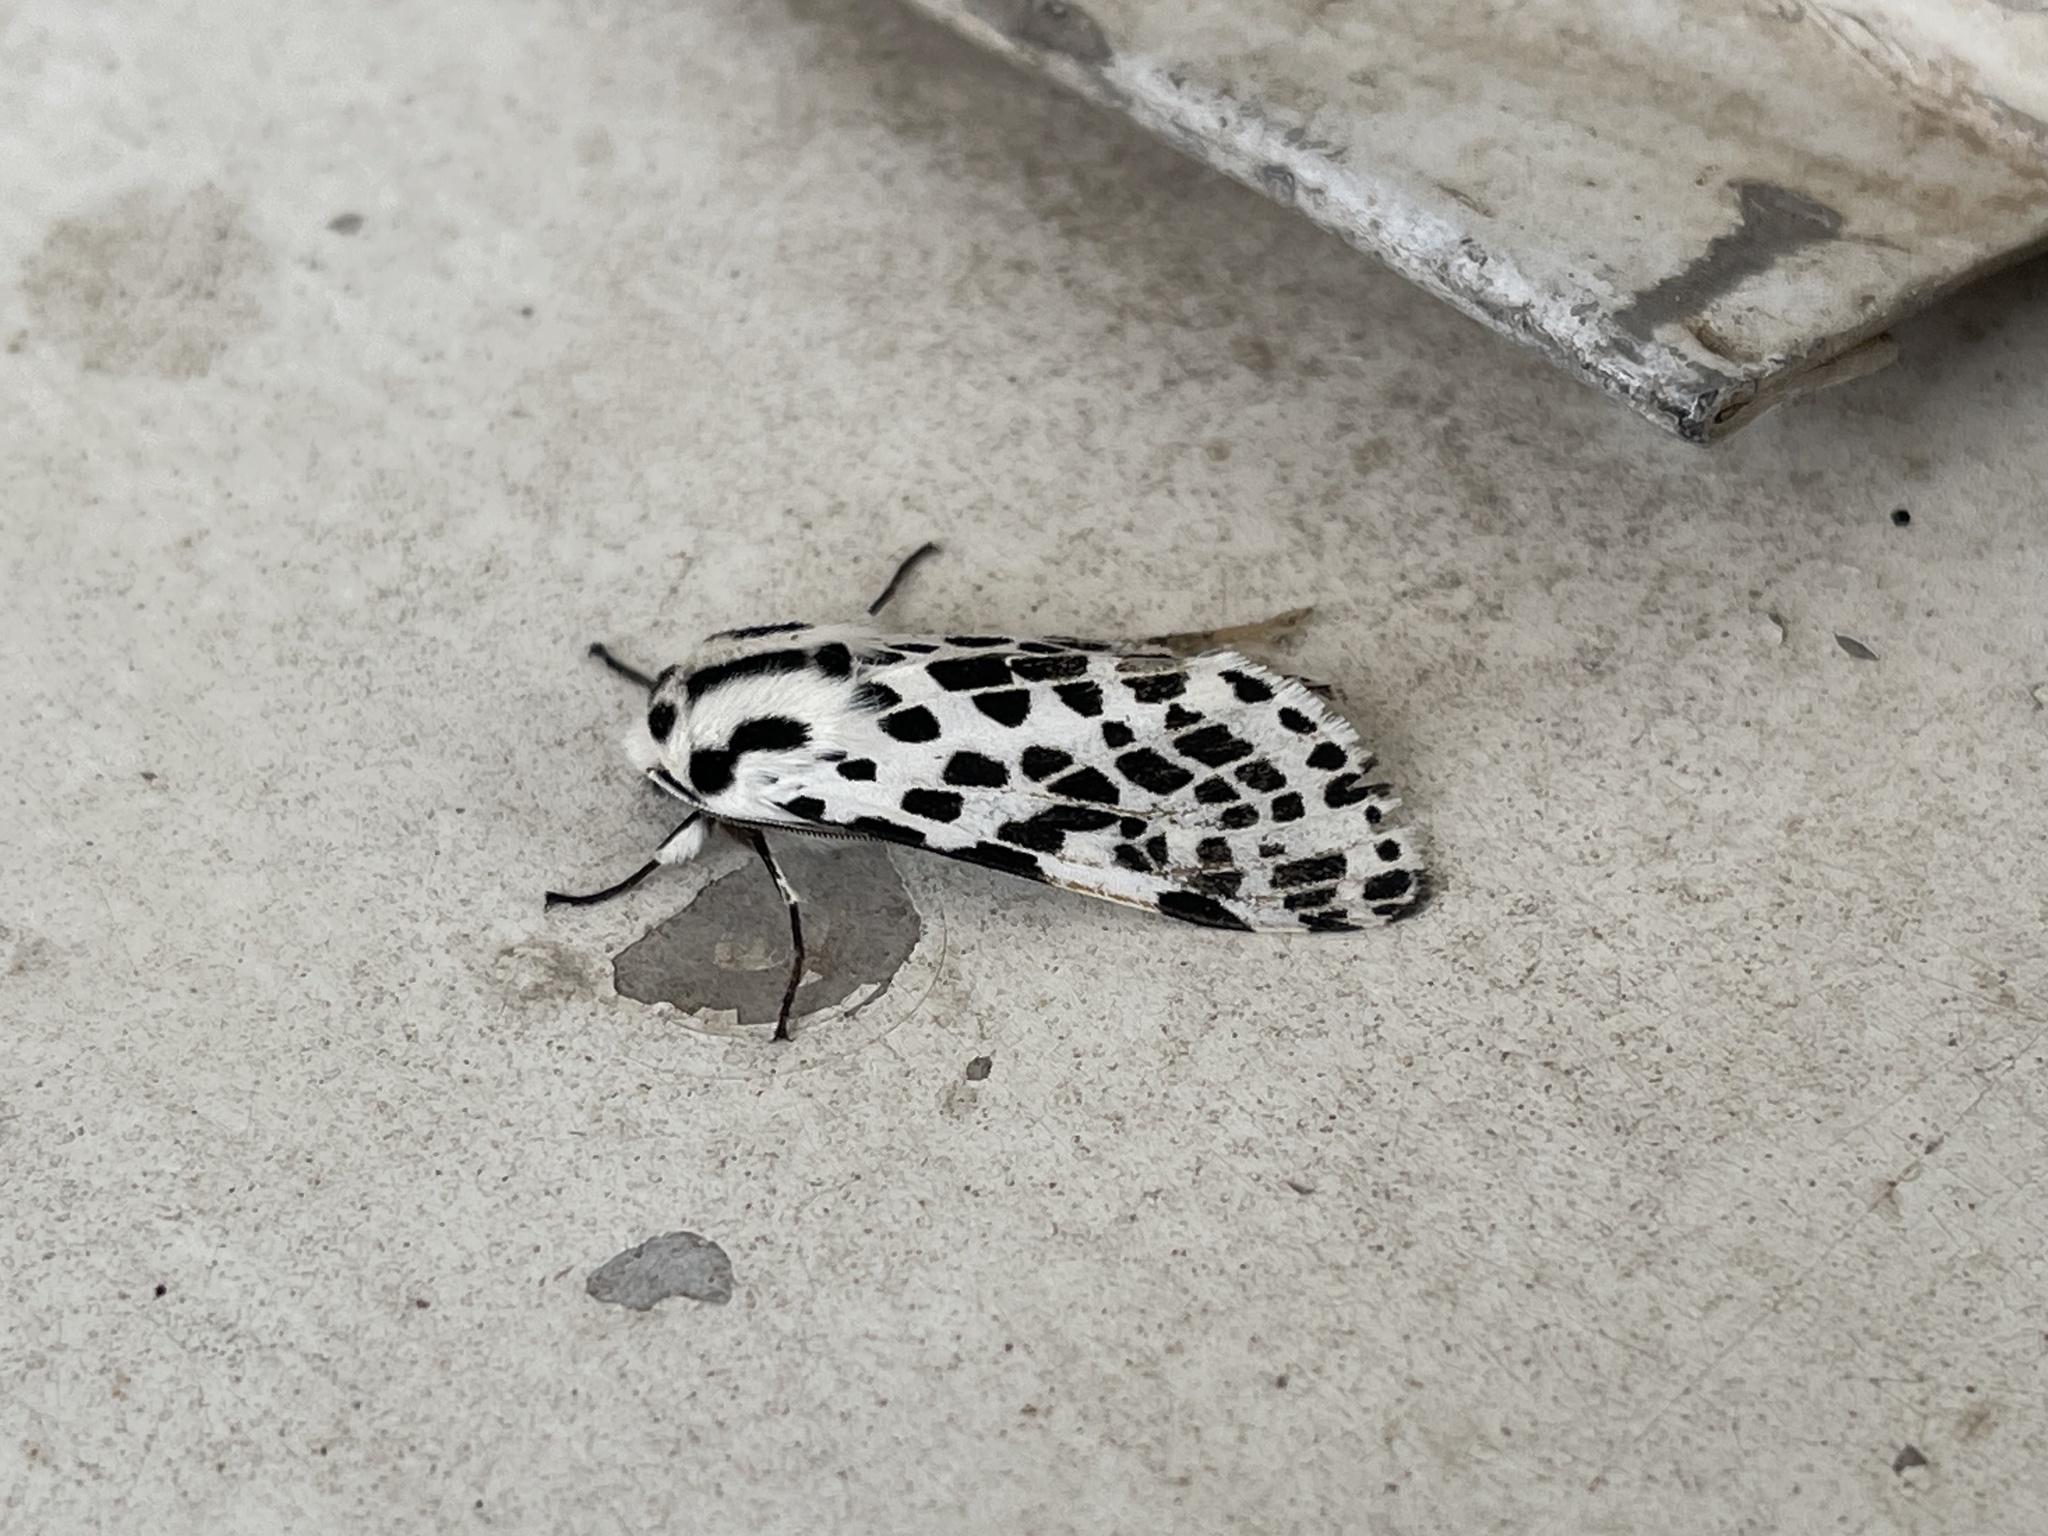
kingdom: Animalia
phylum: Arthropoda
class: Insecta
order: Lepidoptera
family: Erebidae
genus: Hypercompe
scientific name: Hypercompe permaculata
